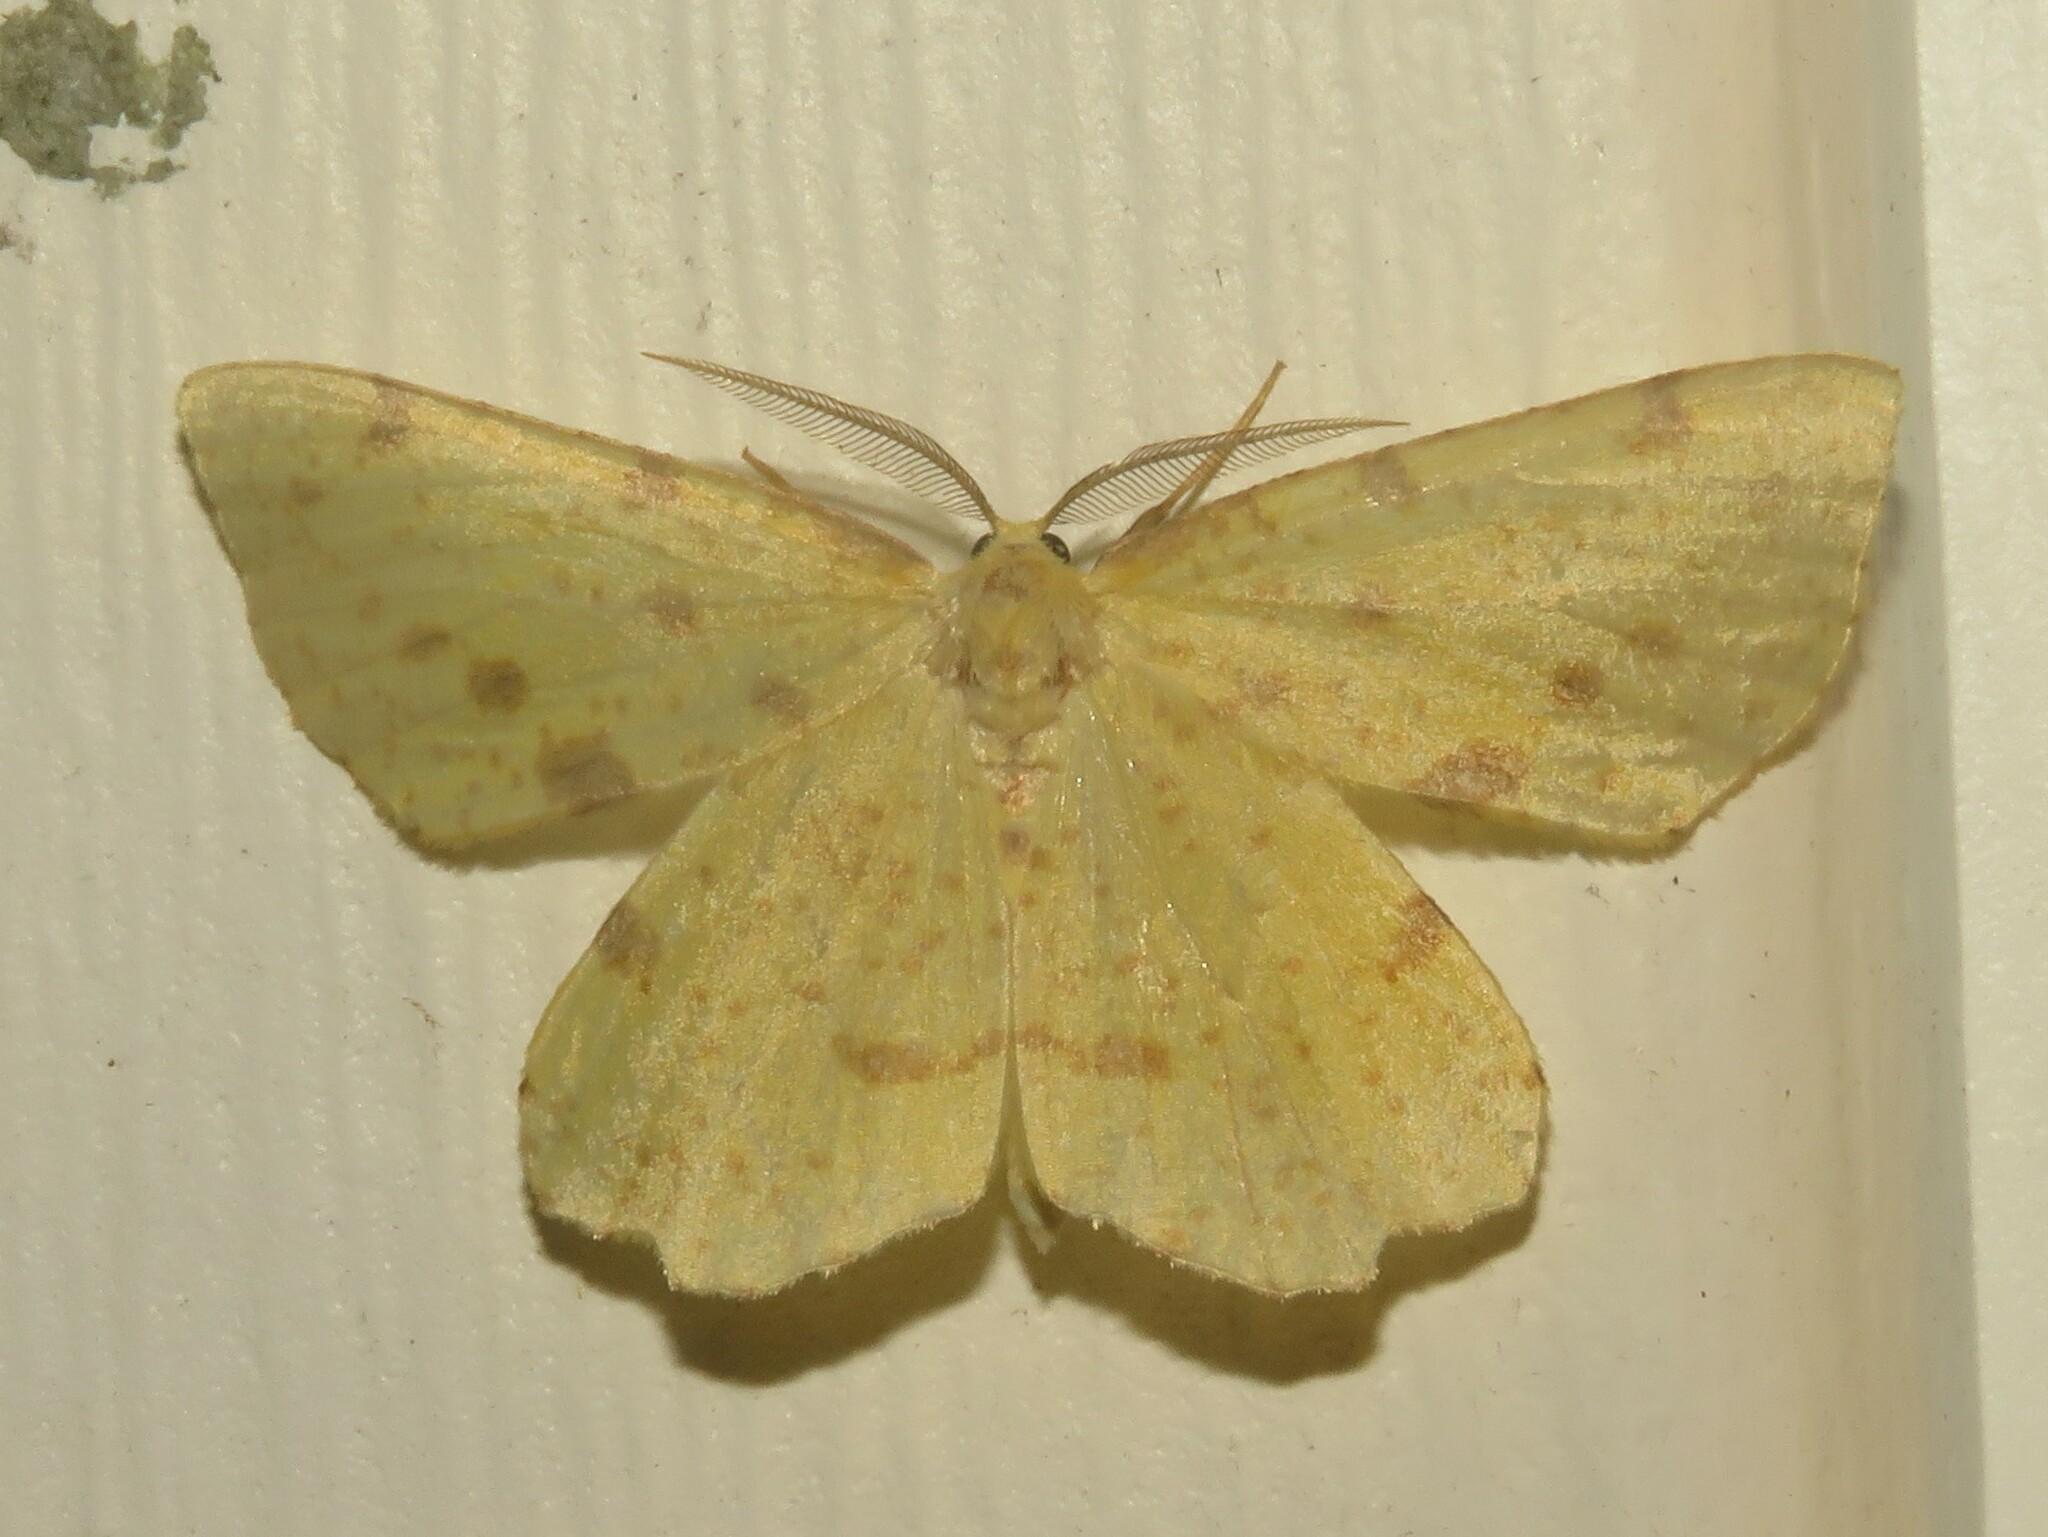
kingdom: Animalia
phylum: Arthropoda
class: Insecta
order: Lepidoptera
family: Geometridae
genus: Xanthotype
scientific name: Xanthotype
